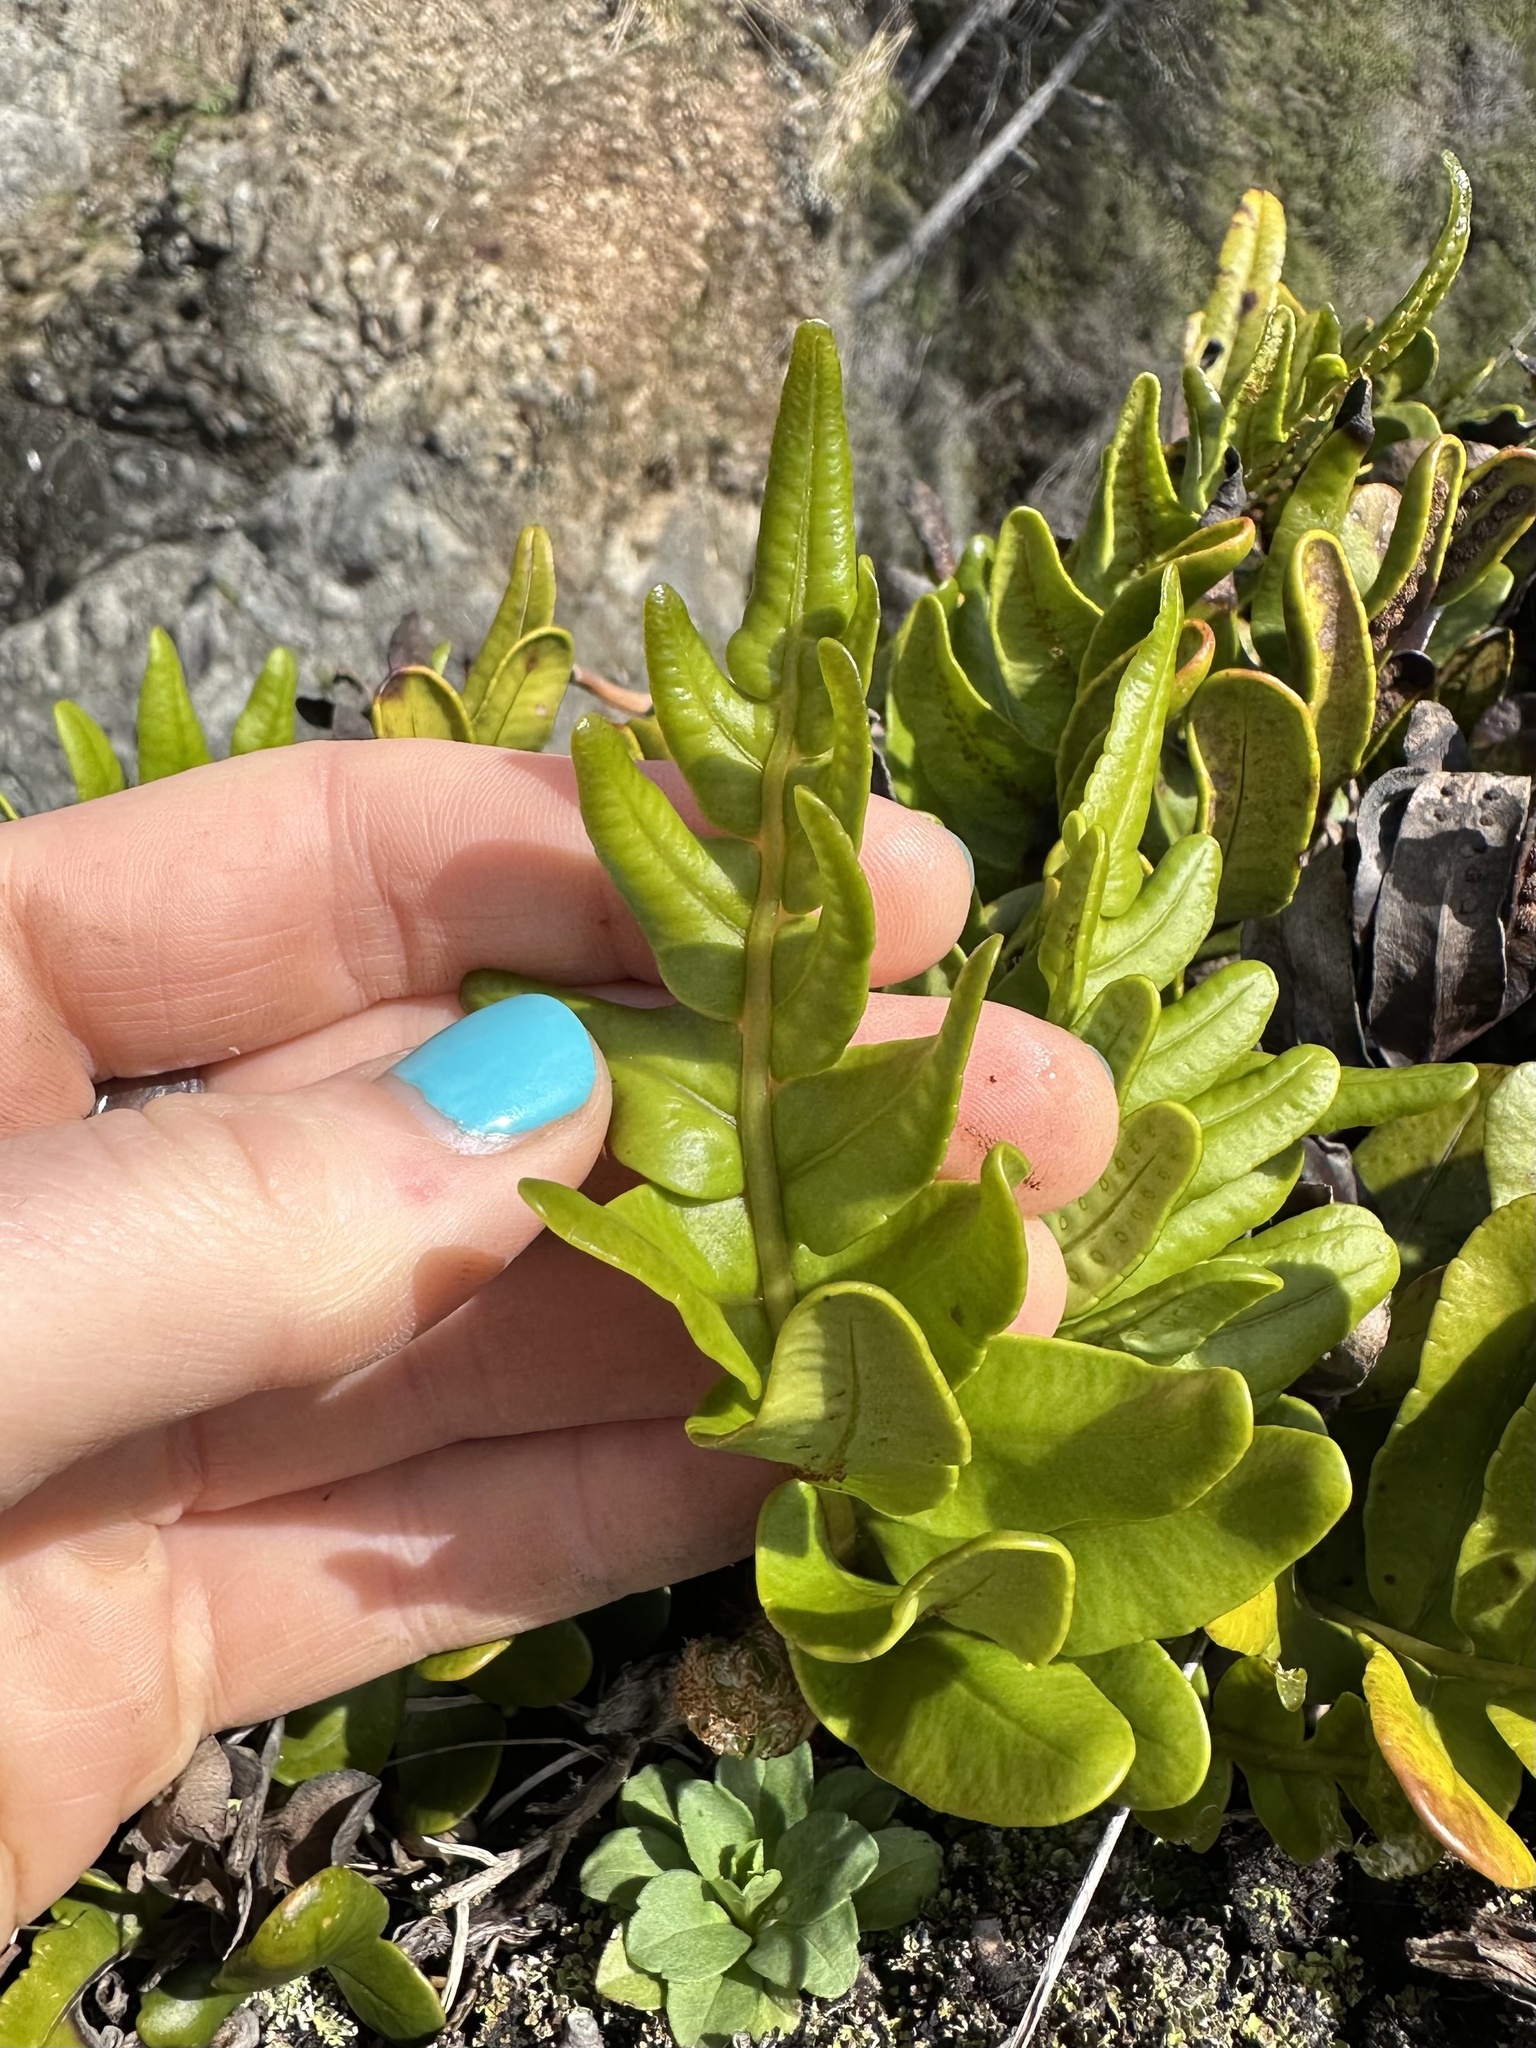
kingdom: Plantae
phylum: Tracheophyta
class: Polypodiopsida
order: Polypodiales
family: Polypodiaceae
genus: Polypodium
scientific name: Polypodium scouleri
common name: Scouler's polypody
